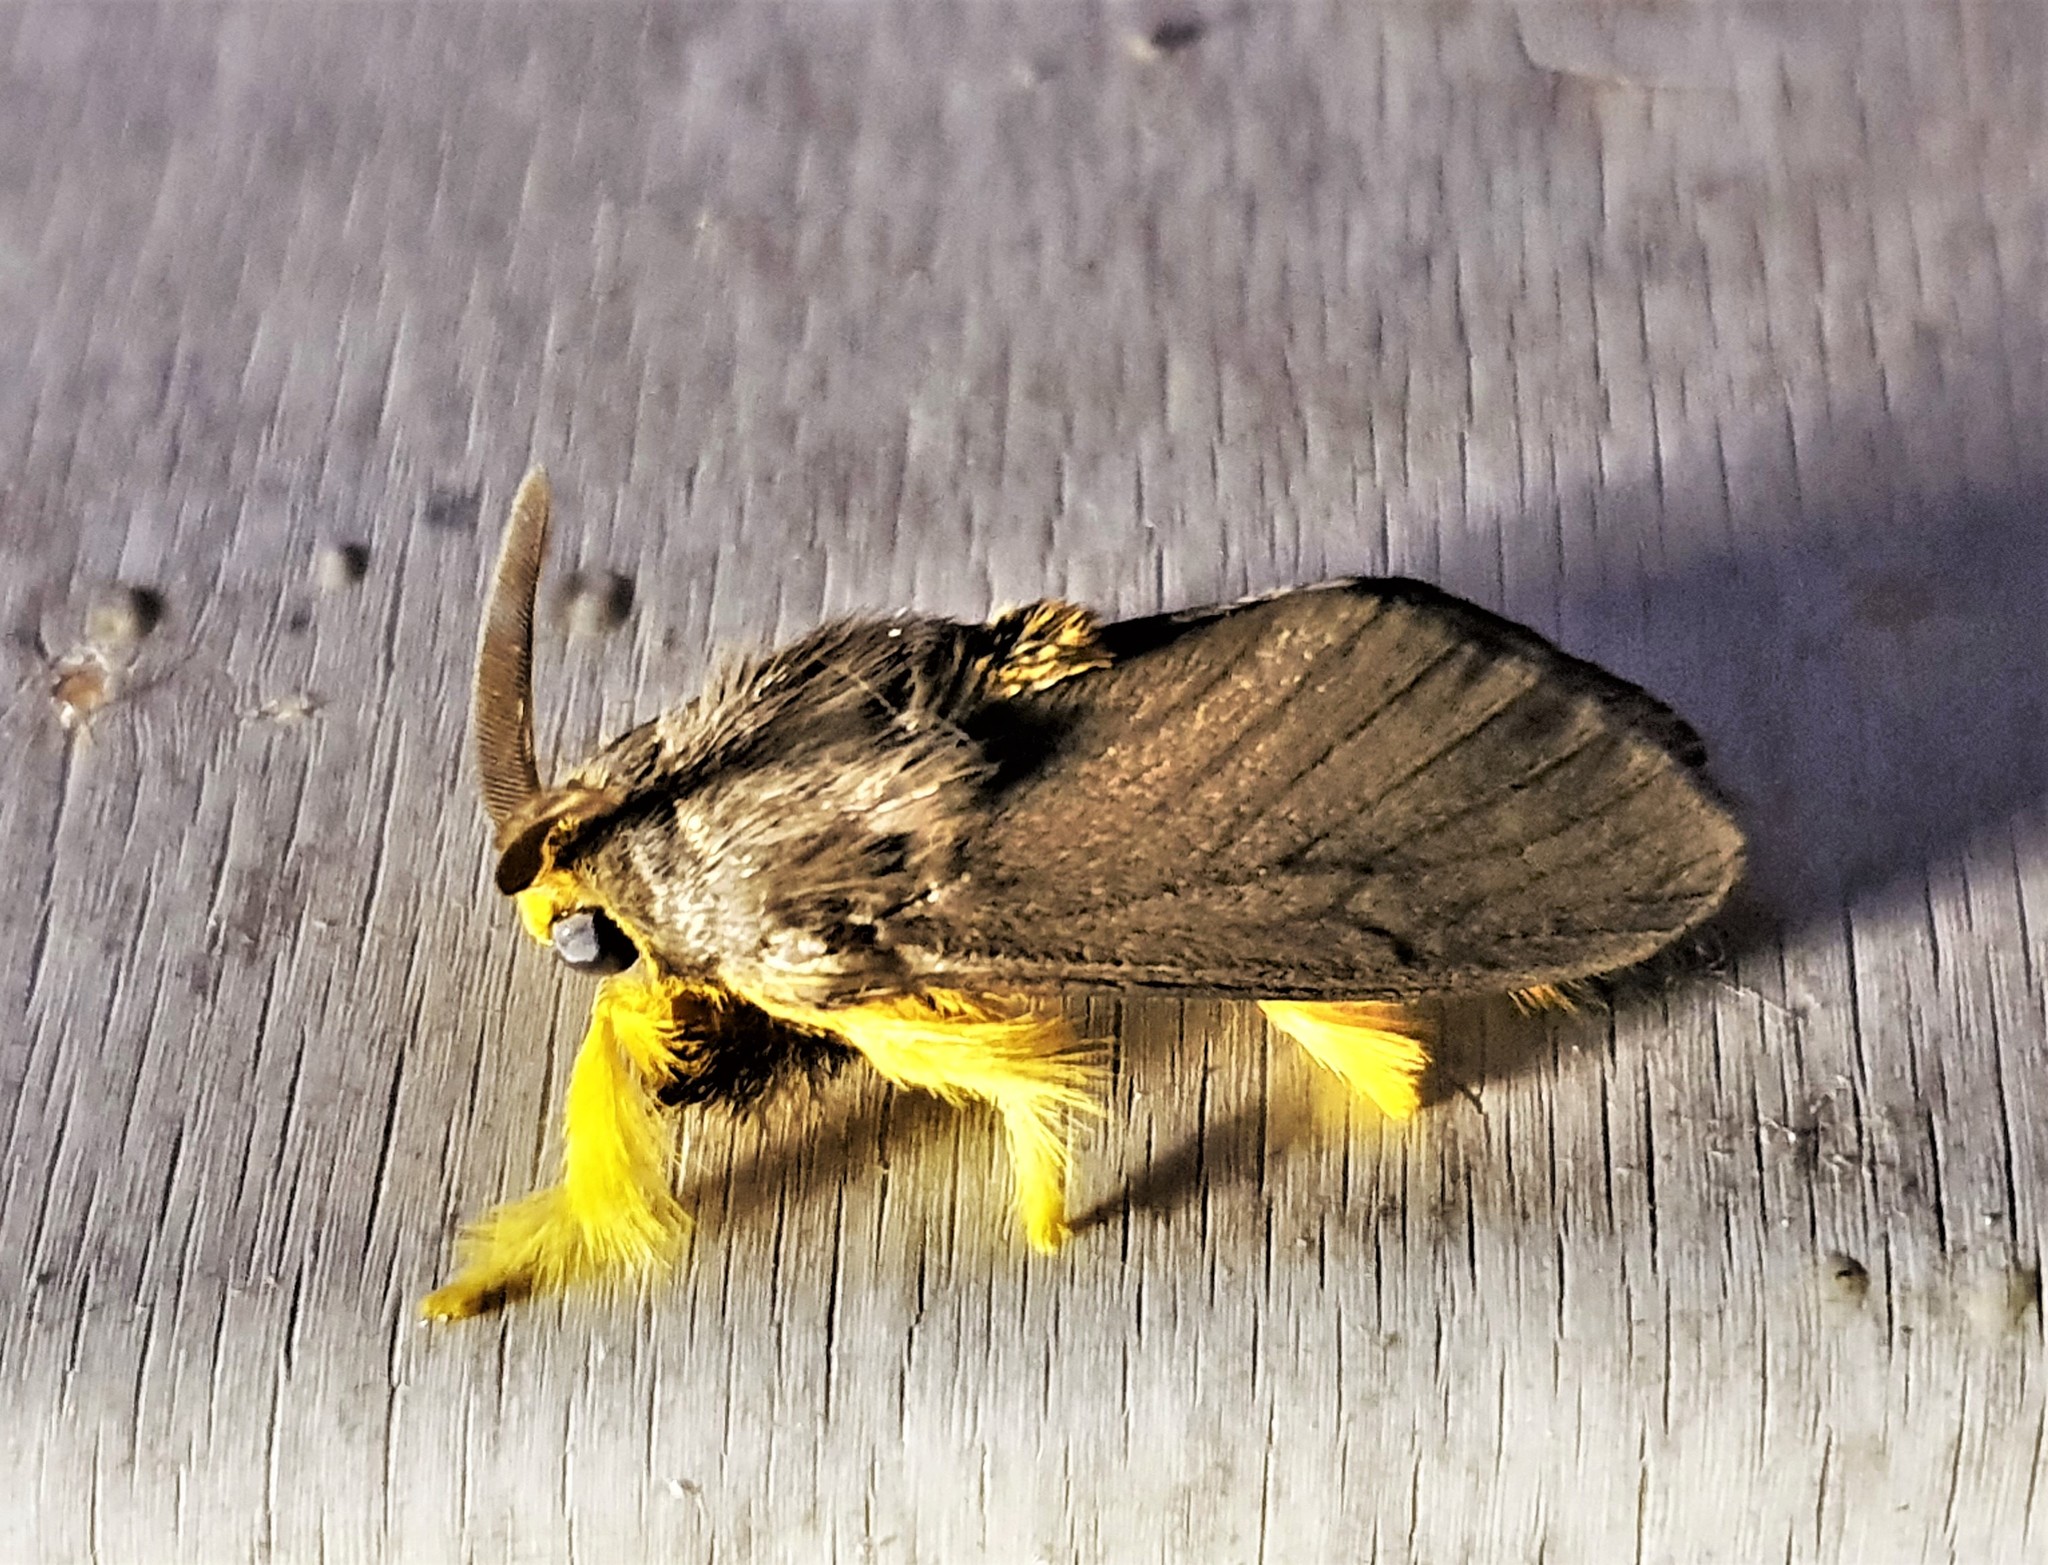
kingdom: Animalia
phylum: Arthropoda
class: Insecta
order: Lepidoptera
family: Megalopygidae
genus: Thoscora
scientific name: Thoscora pellucida
